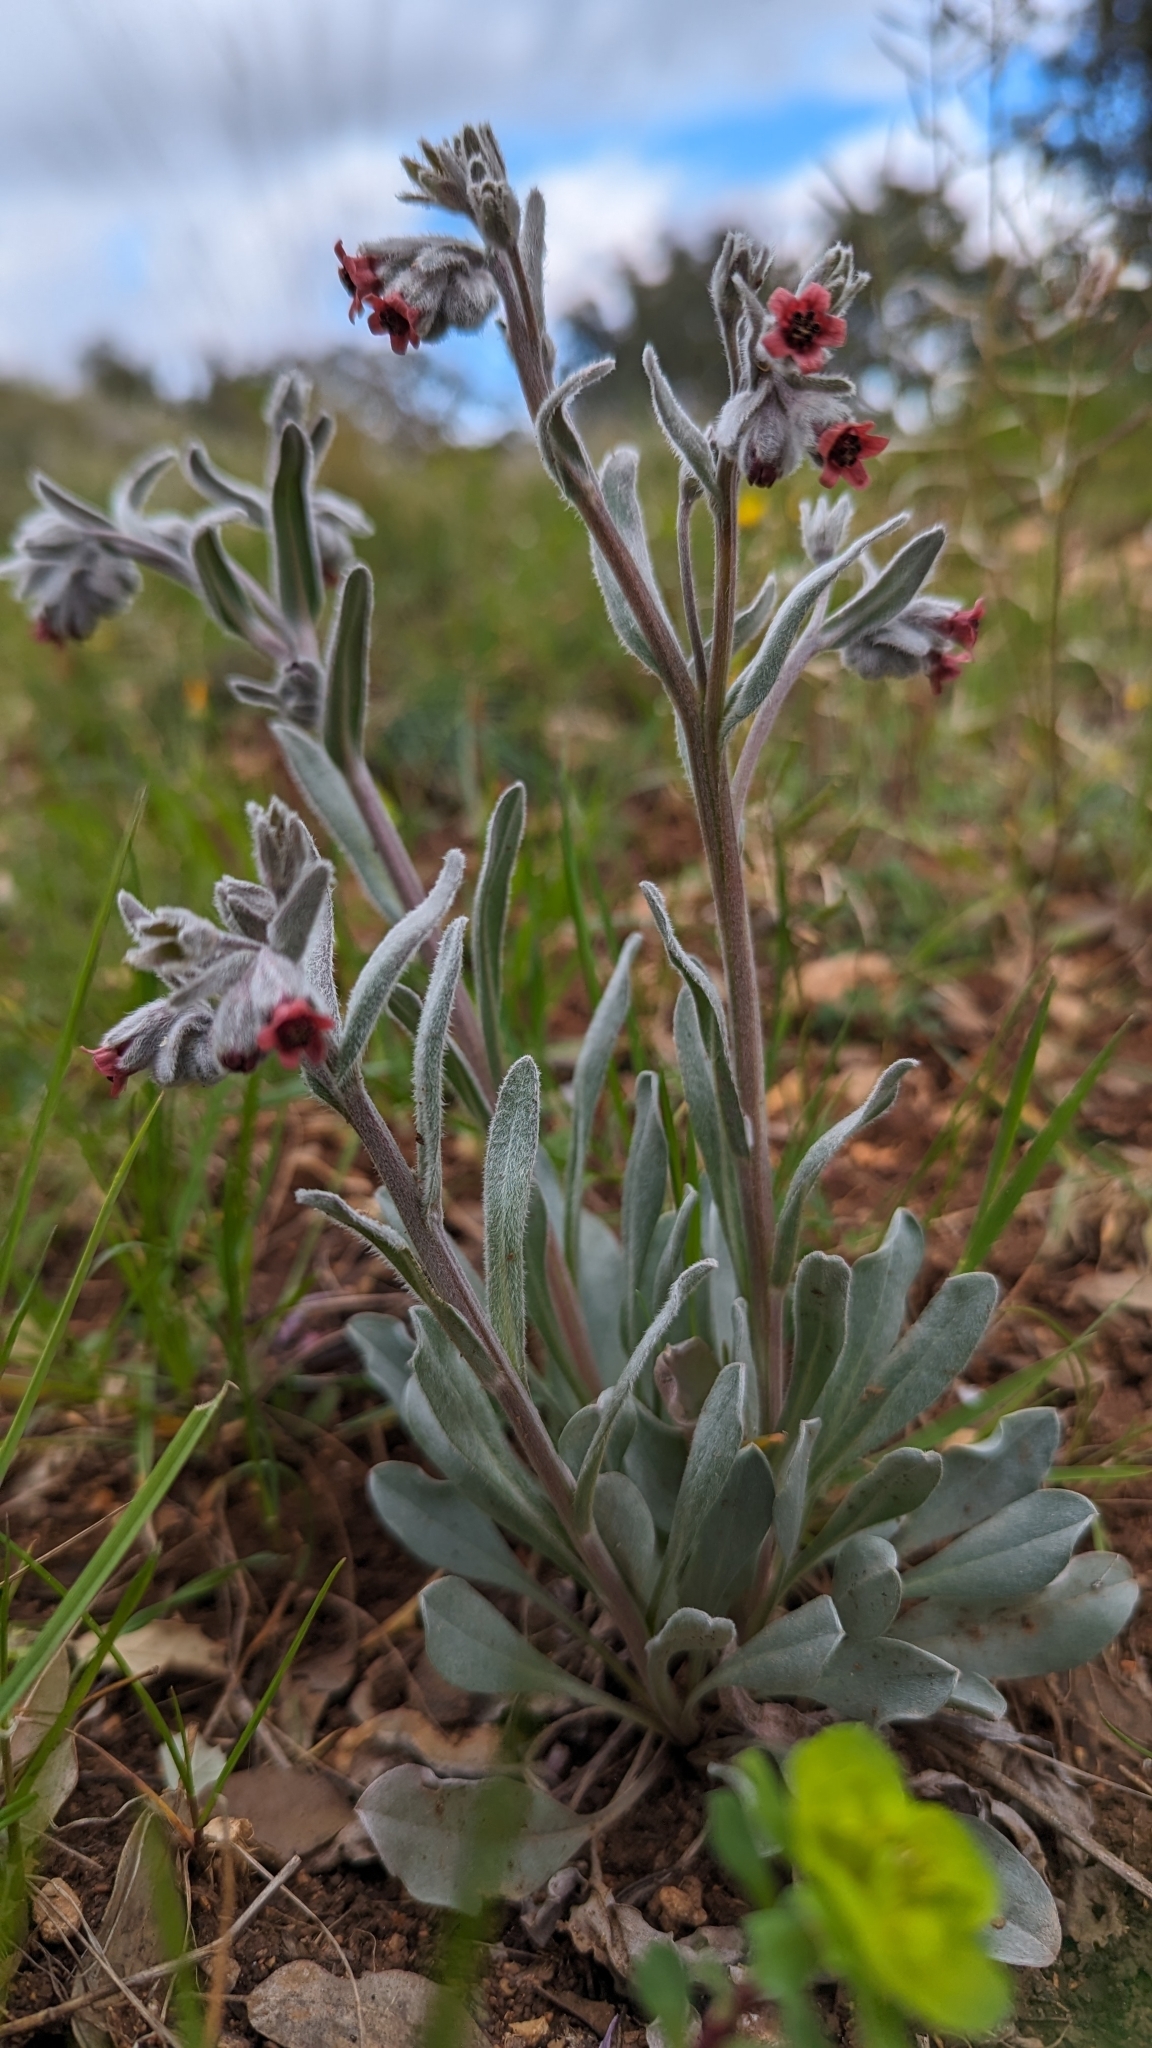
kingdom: Plantae
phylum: Tracheophyta
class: Magnoliopsida
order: Boraginales
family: Boraginaceae
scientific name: Boraginaceae
